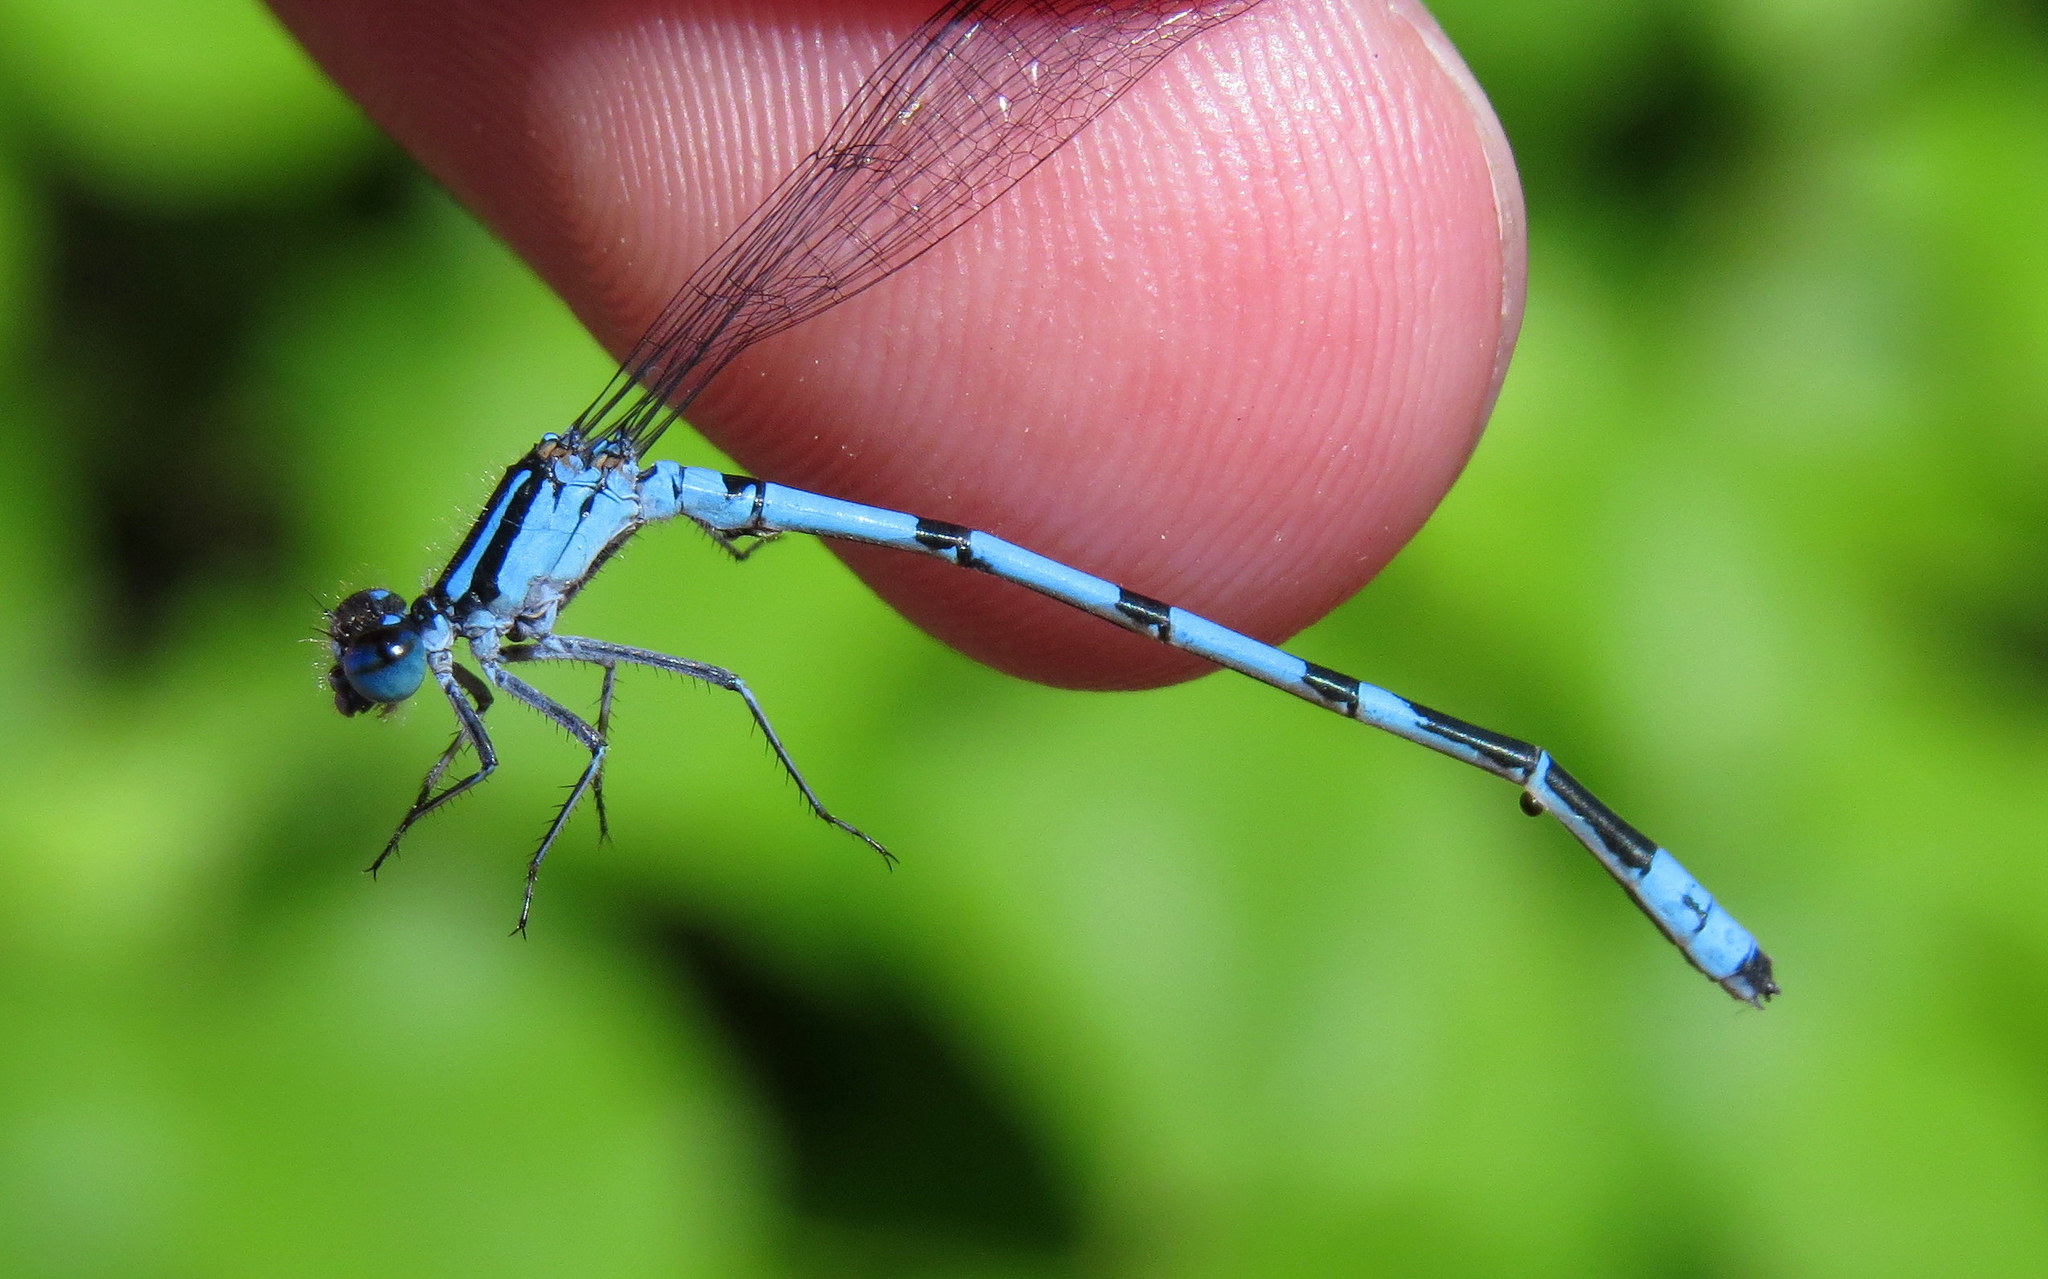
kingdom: Animalia
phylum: Arthropoda
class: Insecta
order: Odonata
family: Coenagrionidae
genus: Enallagma
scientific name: Enallagma ebrium
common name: Marsh bluet
